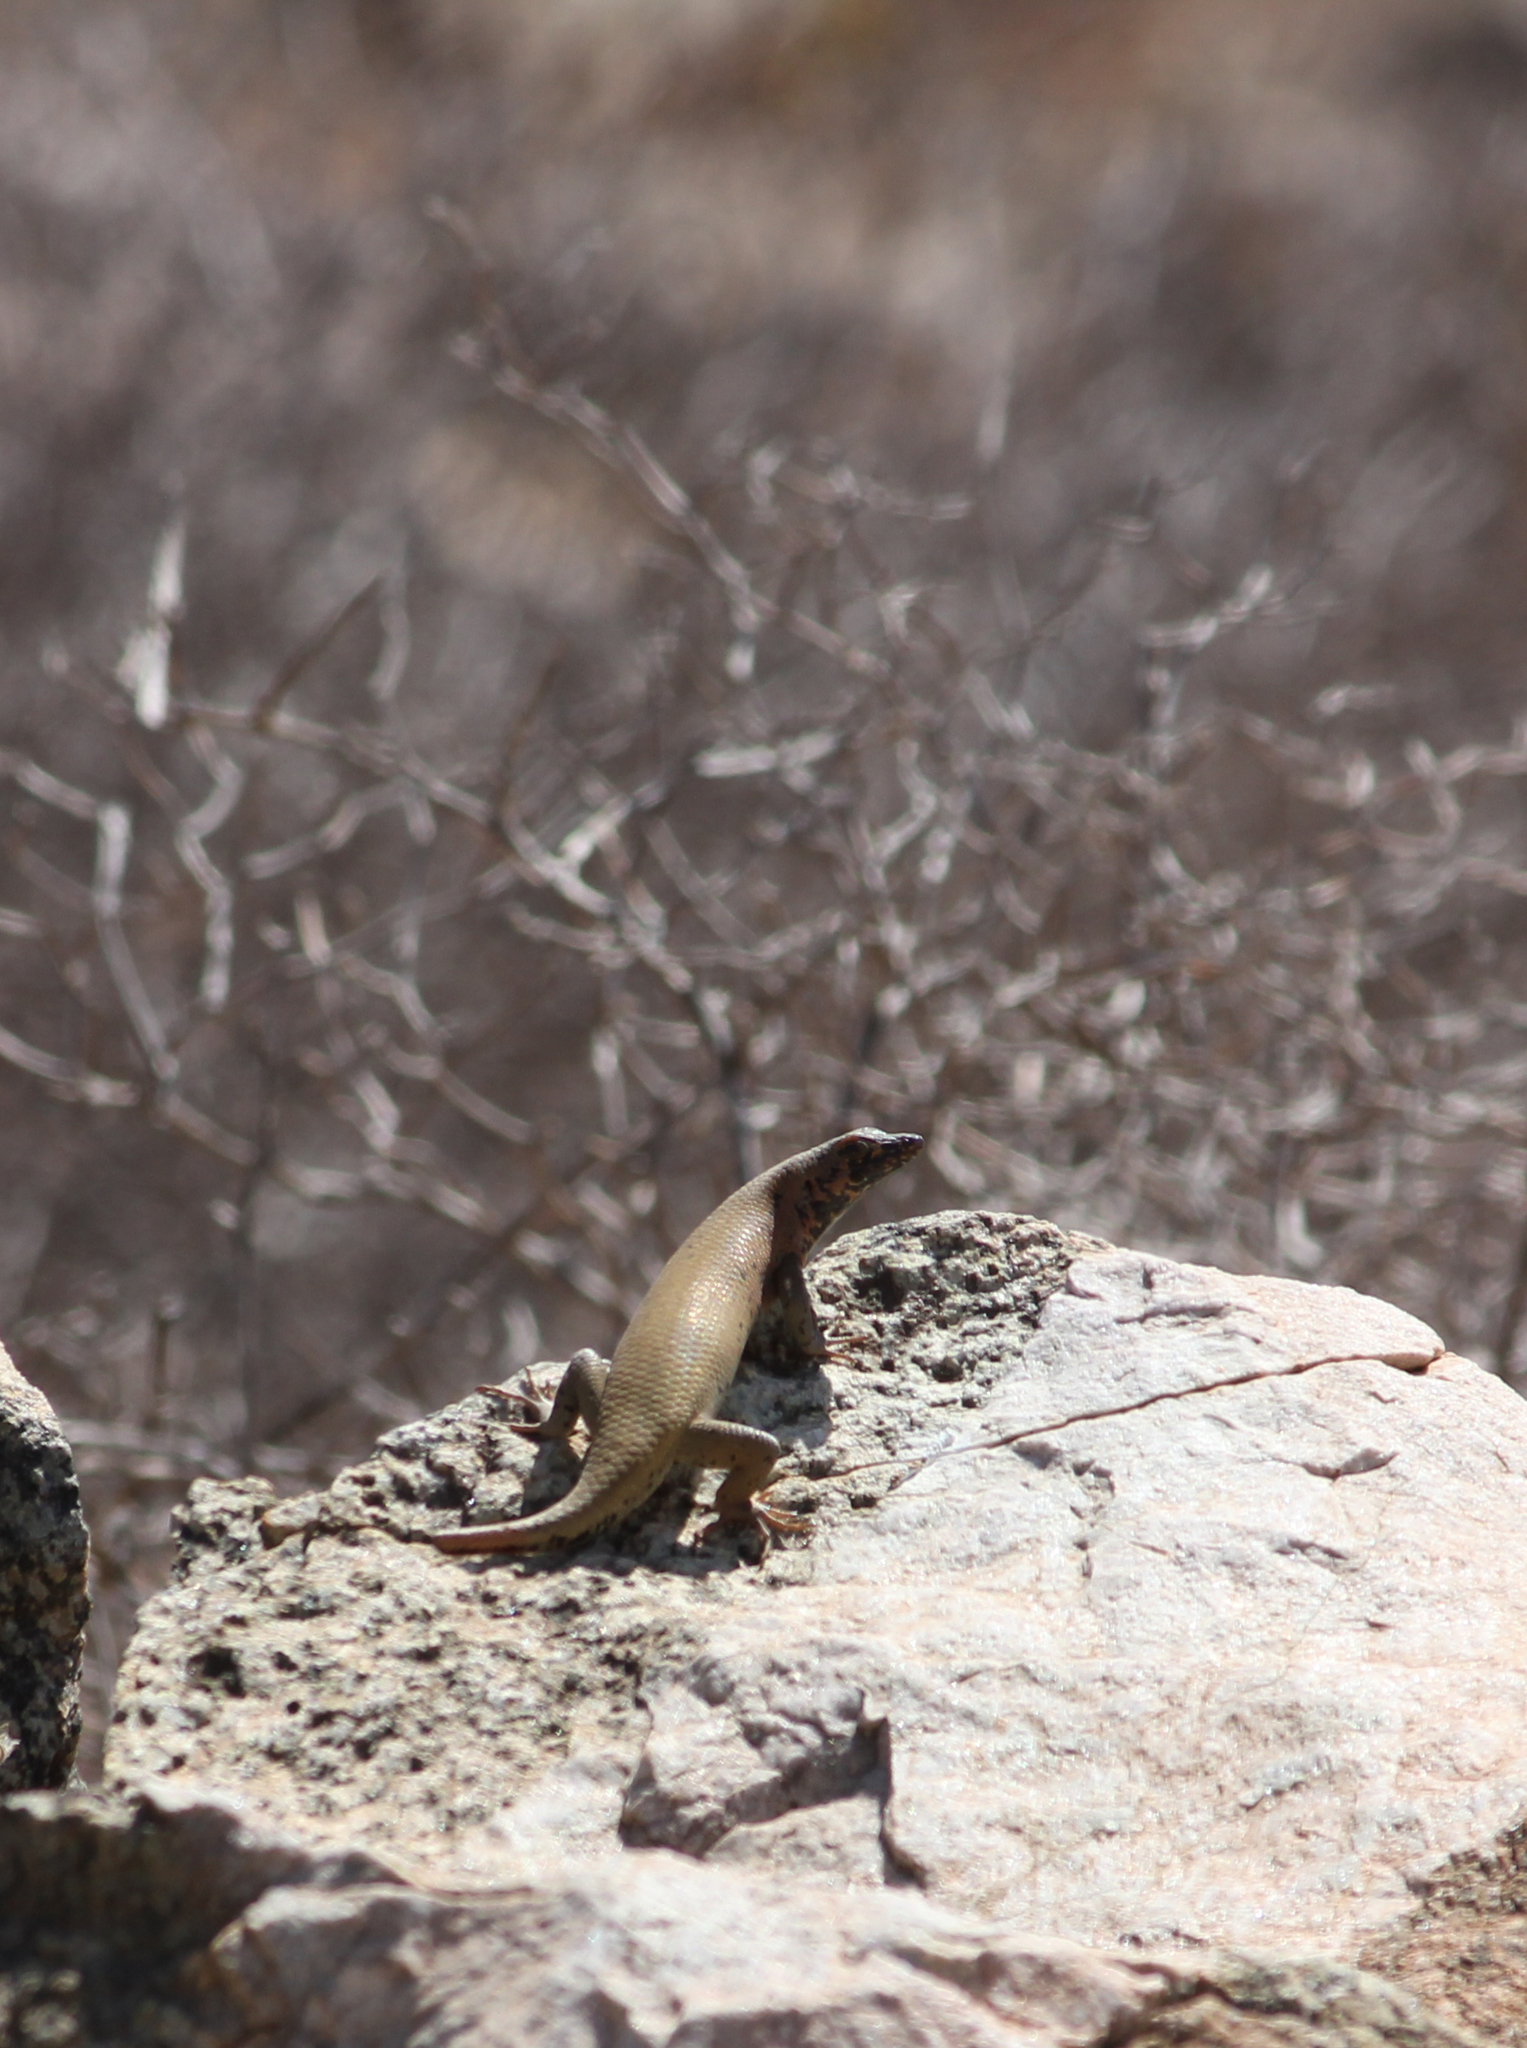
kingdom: Animalia
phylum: Chordata
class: Squamata
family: Scincidae
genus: Trachylepis
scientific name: Trachylepis sulcata
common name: Western rock skink
